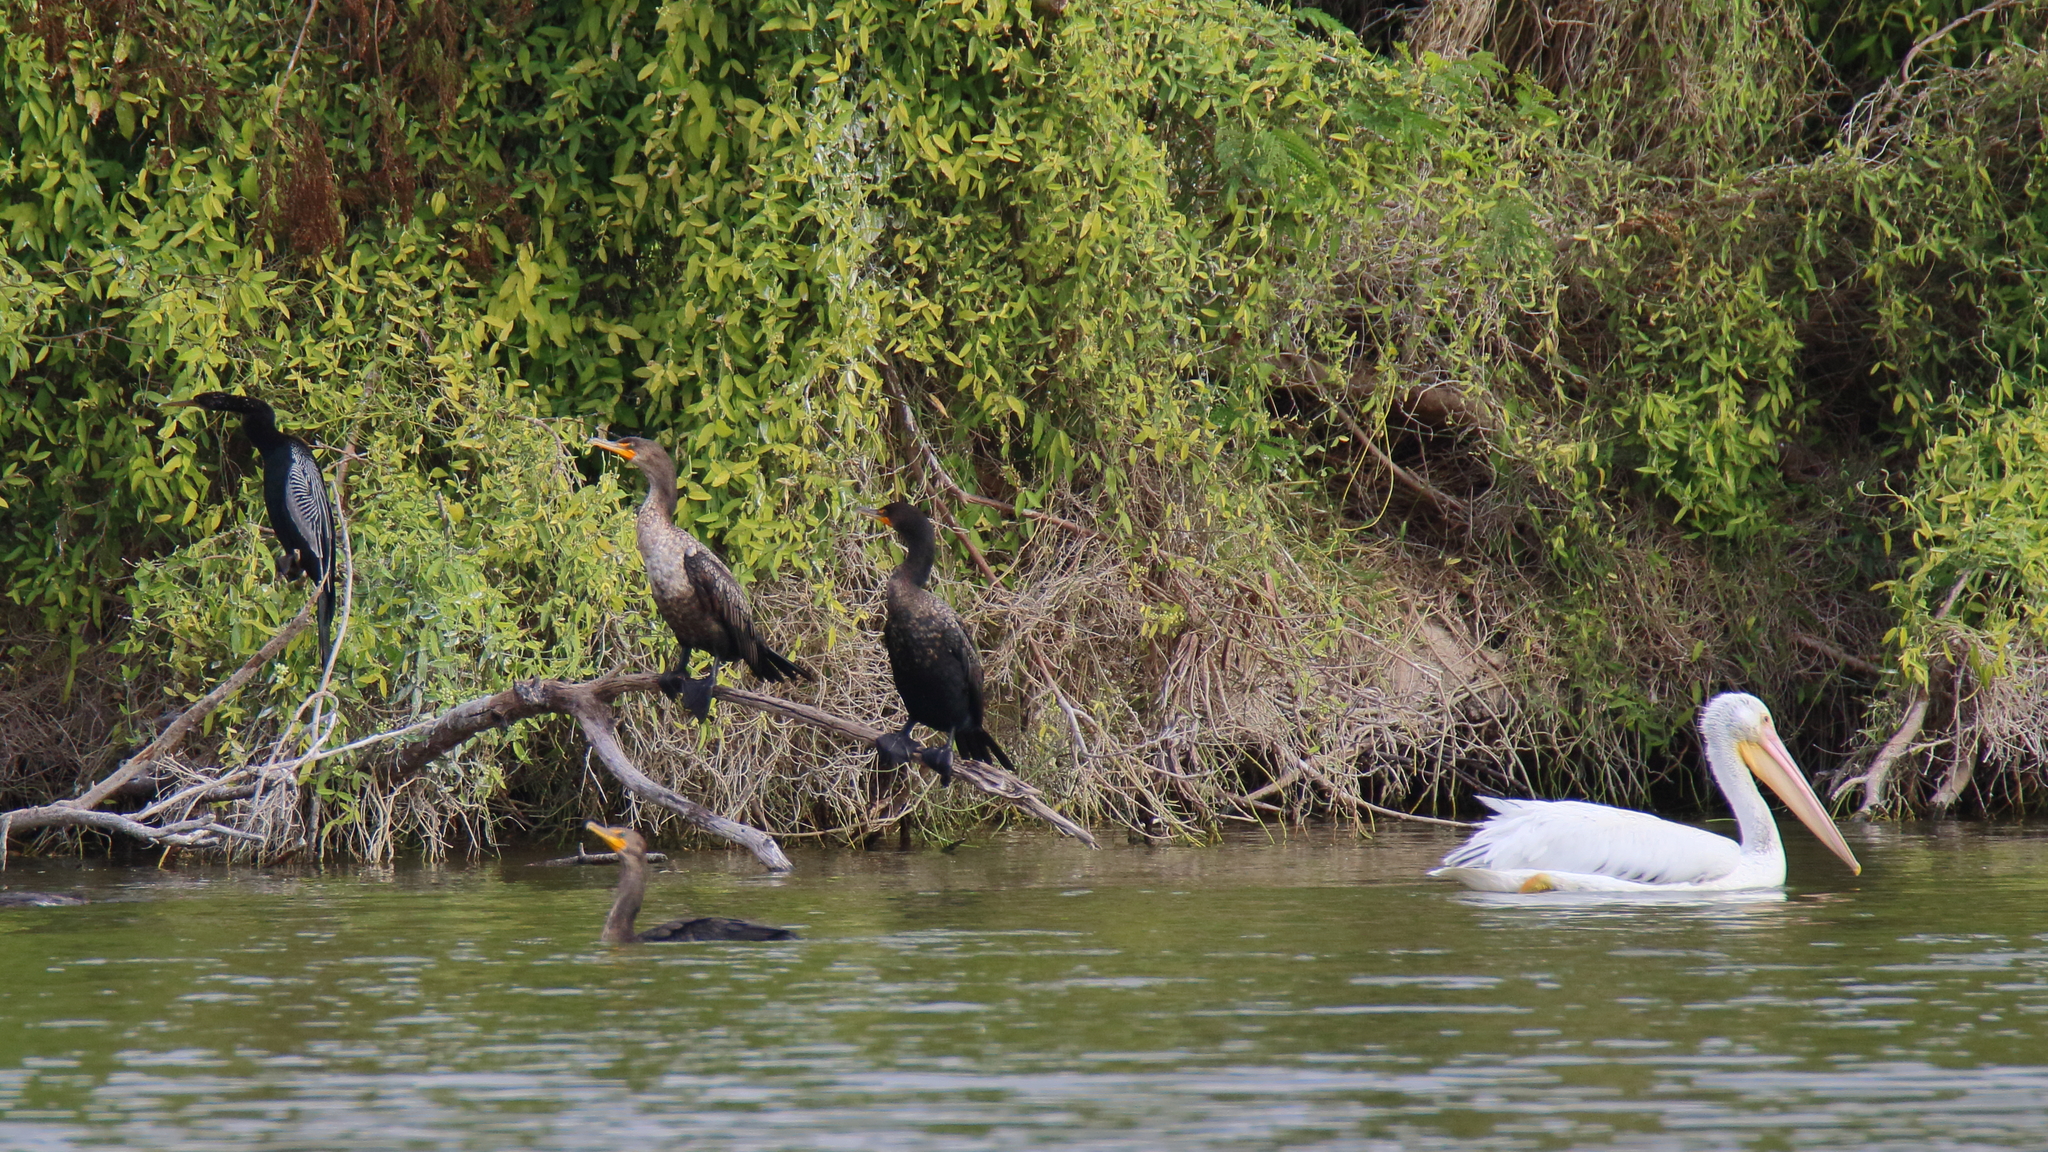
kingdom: Animalia
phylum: Chordata
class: Aves
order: Suliformes
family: Anhingidae
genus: Anhinga
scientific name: Anhinga anhinga
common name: Anhinga
